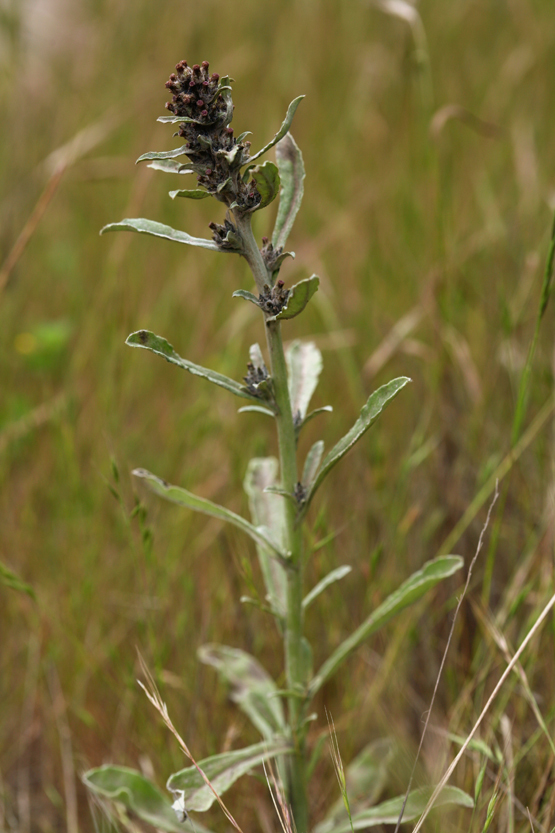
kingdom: Plantae
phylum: Tracheophyta
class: Magnoliopsida
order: Asterales
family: Asteraceae
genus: Gamochaeta
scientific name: Gamochaeta ustulata
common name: Pacific cudweed
